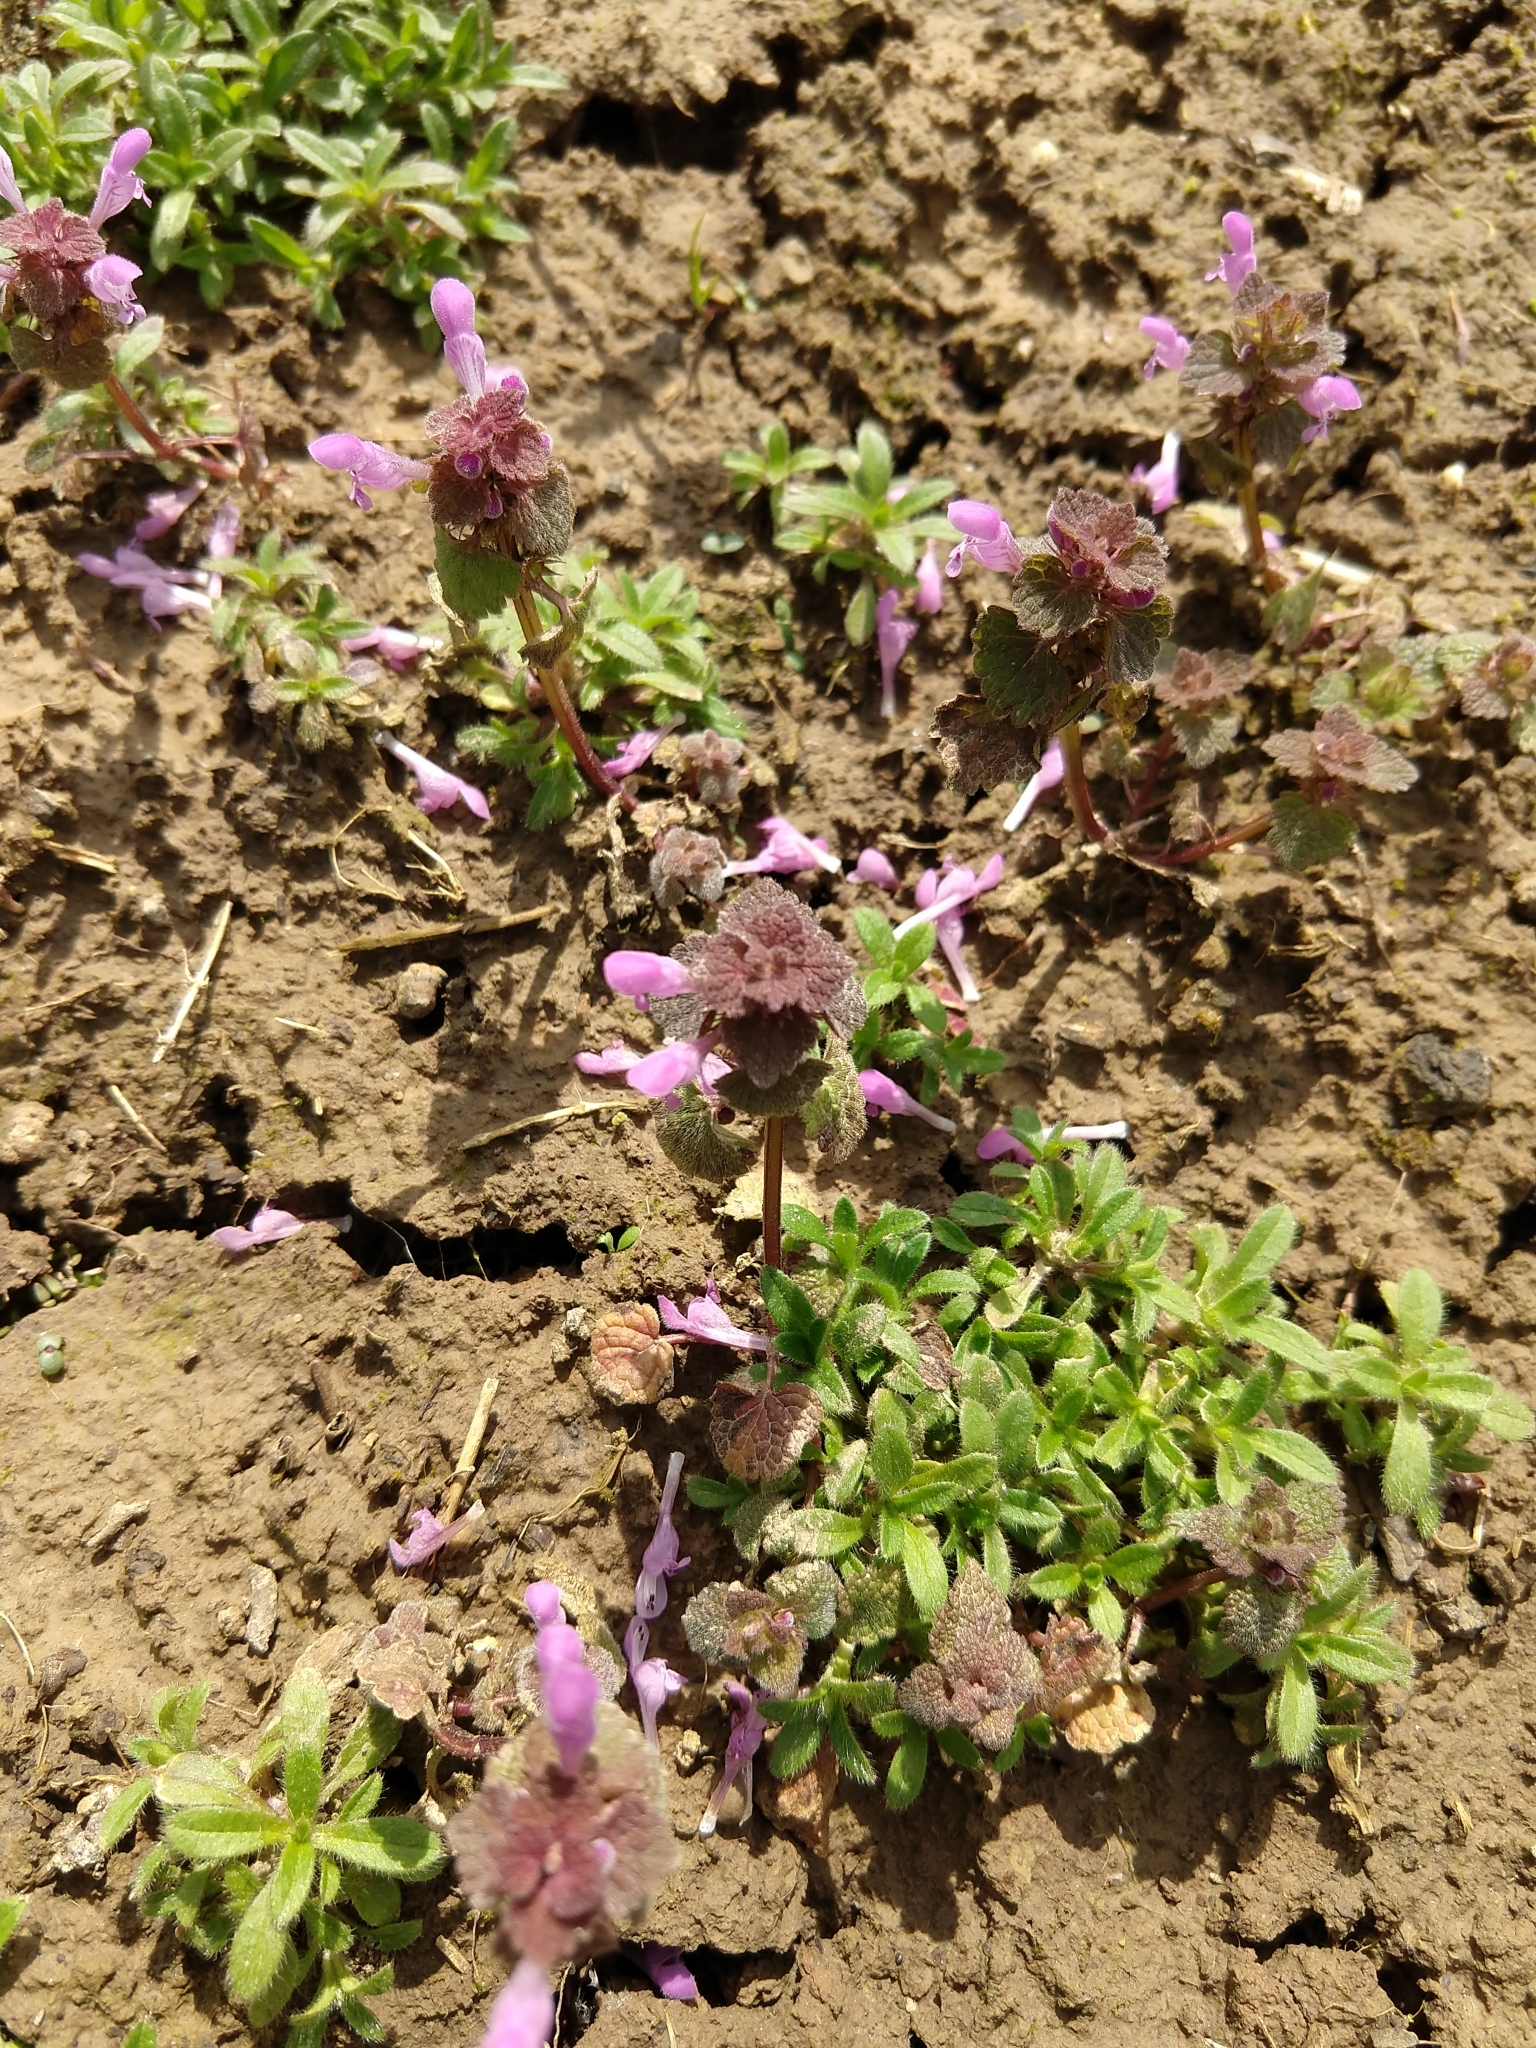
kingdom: Plantae
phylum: Tracheophyta
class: Magnoliopsida
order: Lamiales
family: Lamiaceae
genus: Lamium
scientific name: Lamium purpureum
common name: Red dead-nettle
